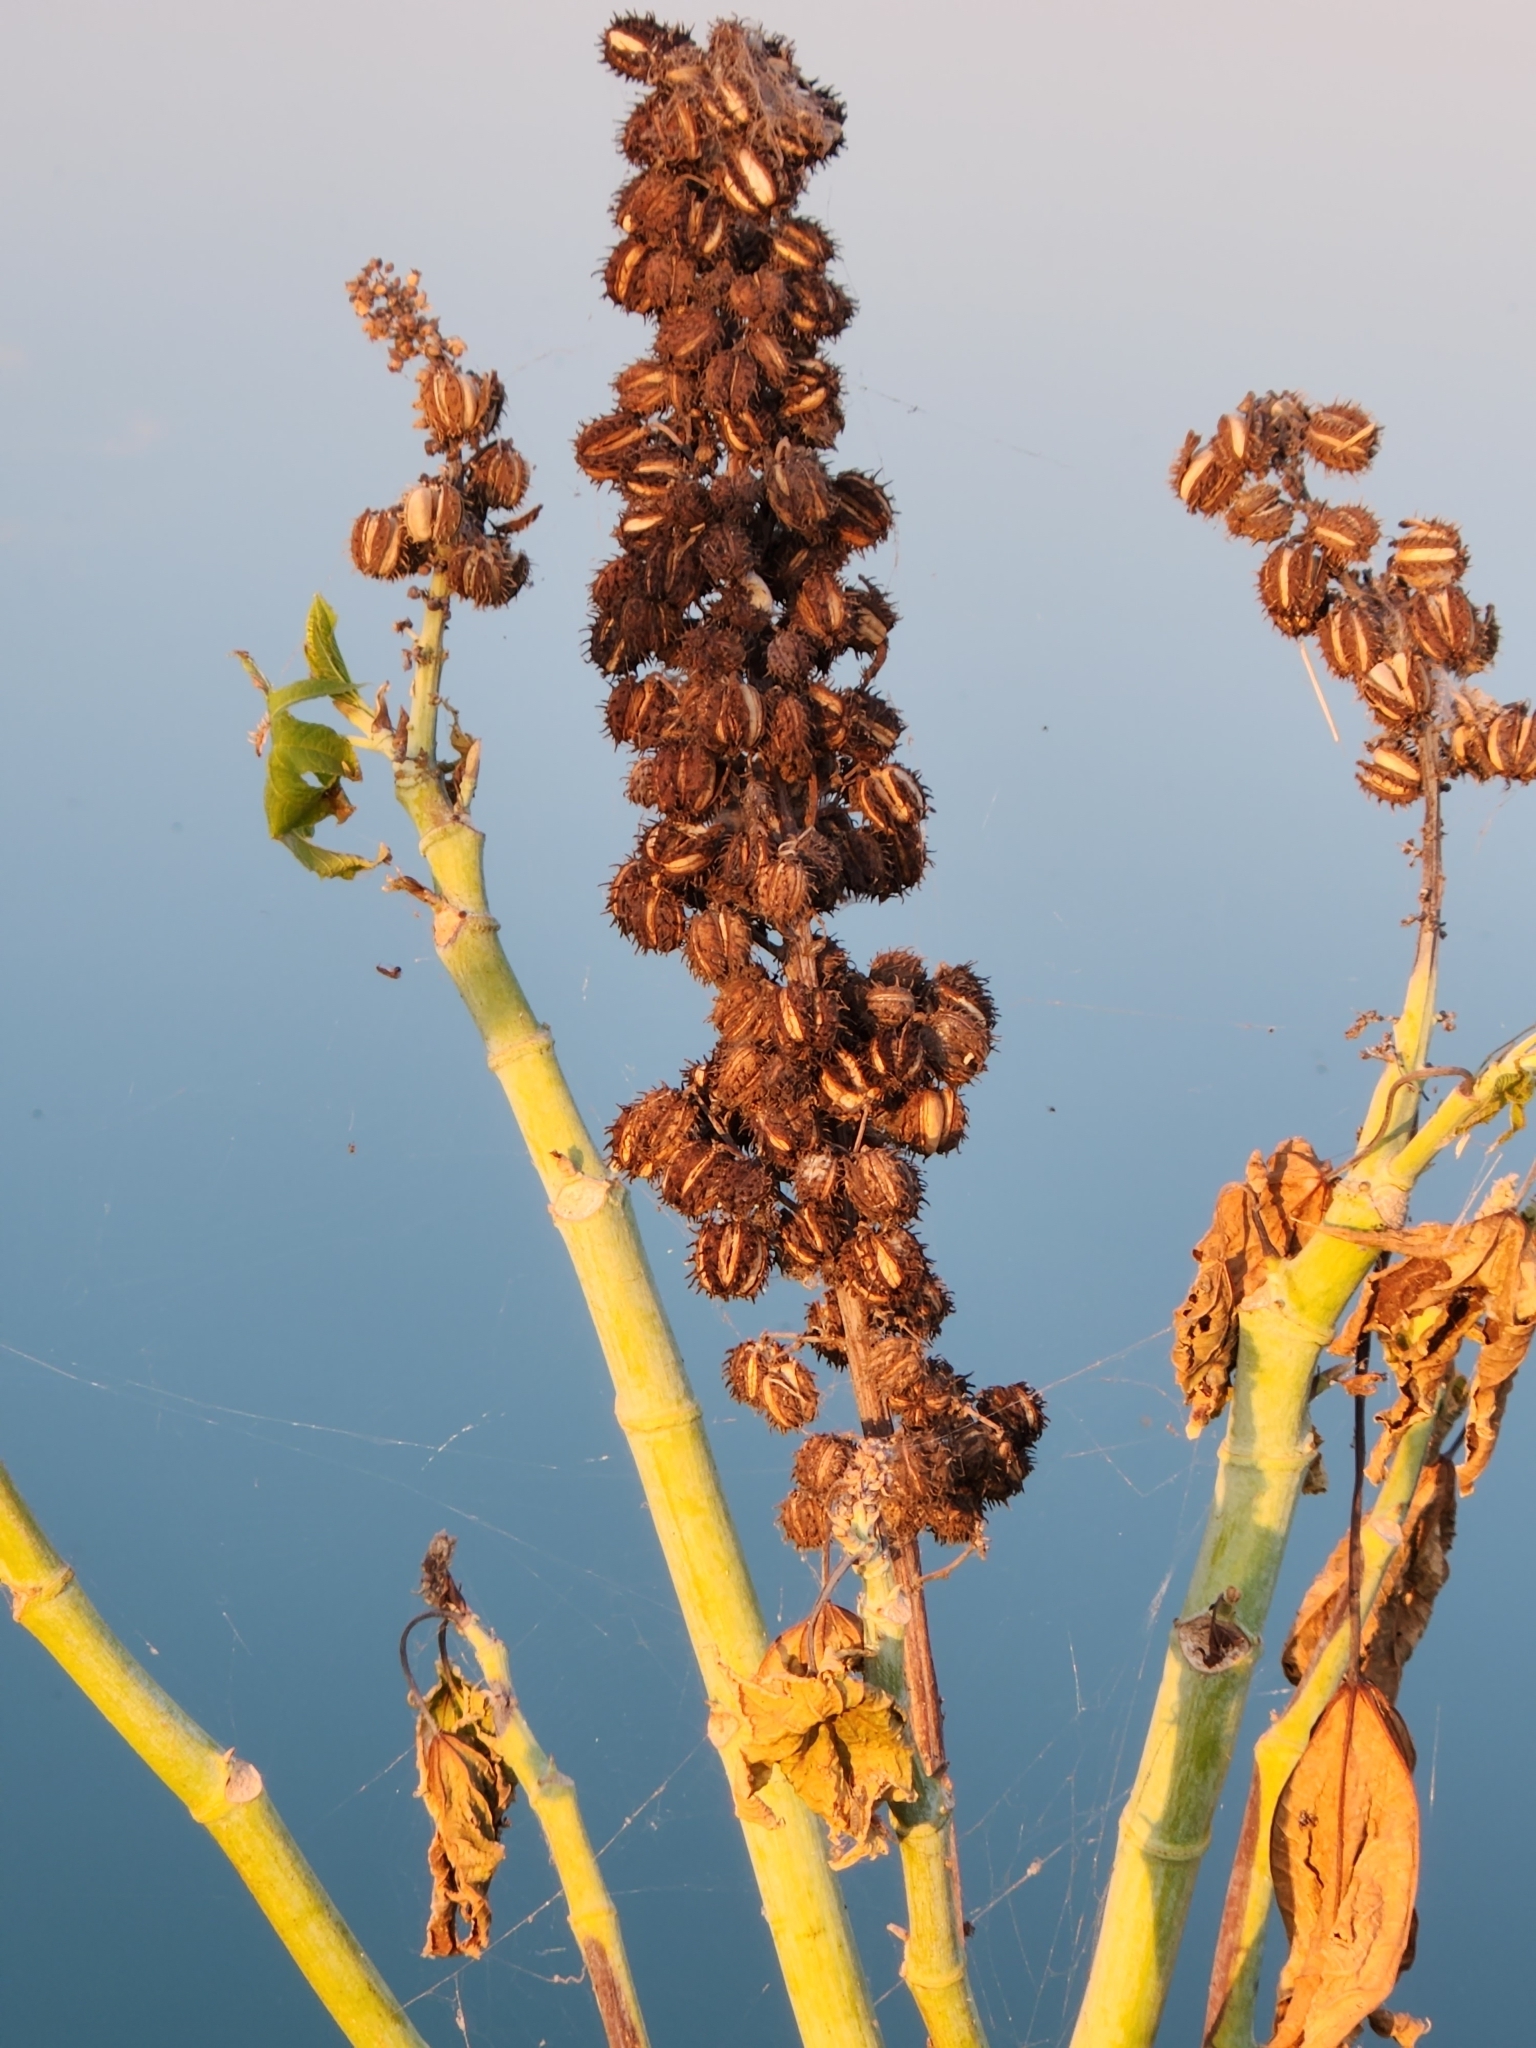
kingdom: Plantae
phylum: Tracheophyta
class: Magnoliopsida
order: Malpighiales
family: Euphorbiaceae
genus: Ricinus
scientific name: Ricinus communis
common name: Castor-oil-plant
